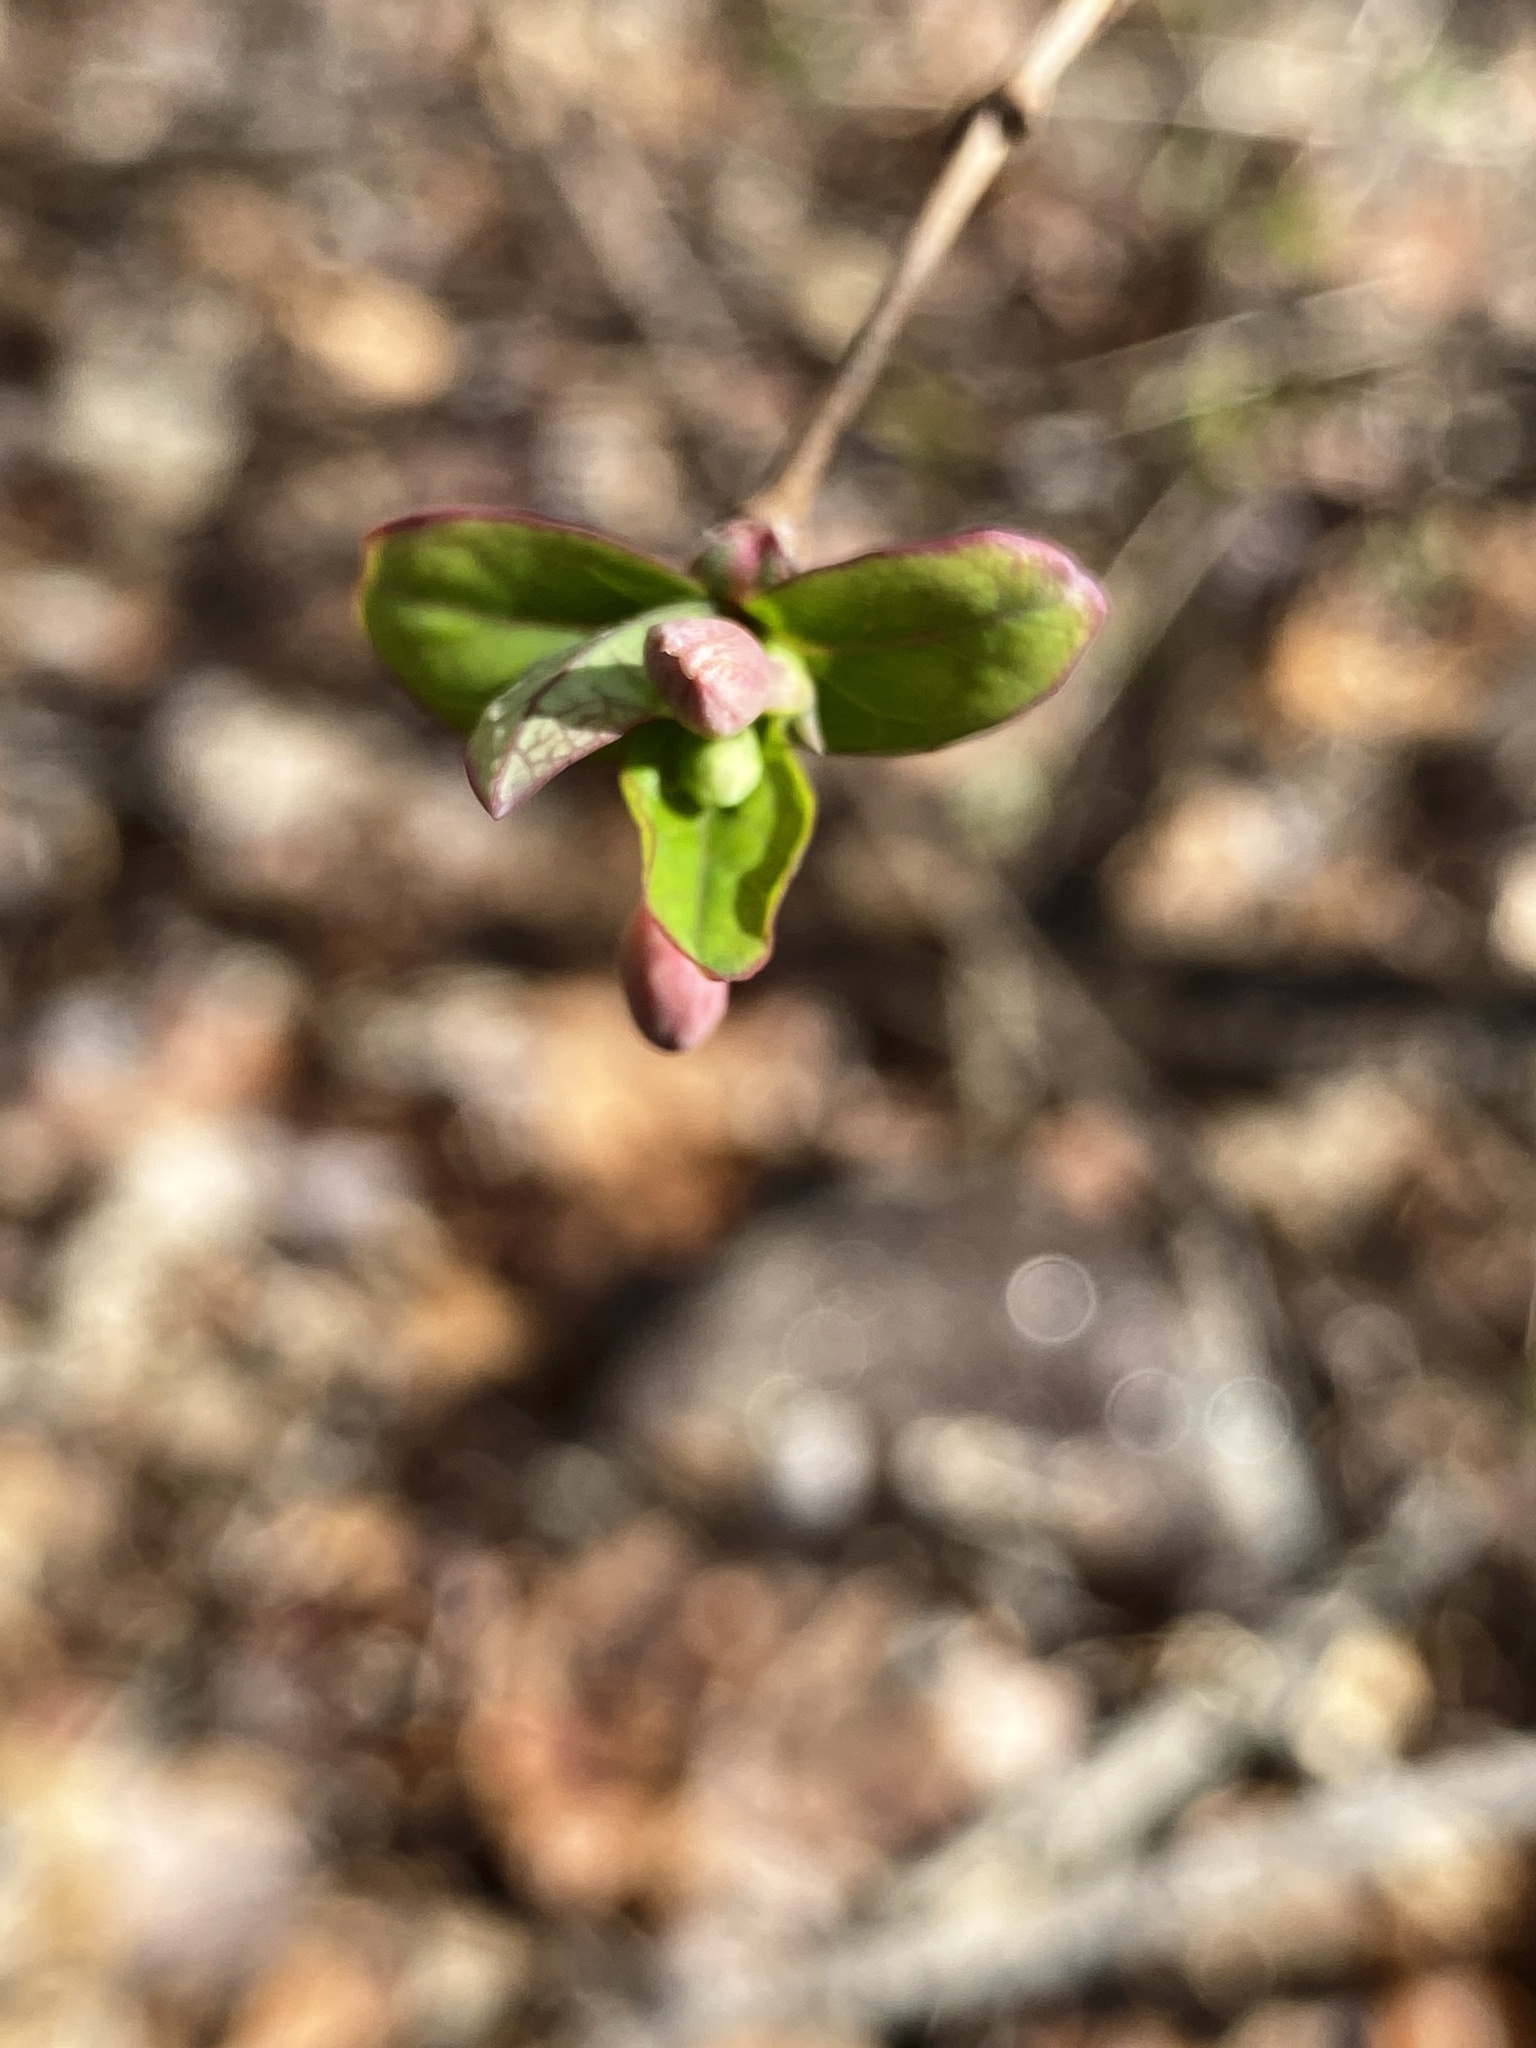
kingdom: Plantae
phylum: Tracheophyta
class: Magnoliopsida
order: Dipsacales
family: Caprifoliaceae
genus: Lonicera
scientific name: Lonicera gracilipes
